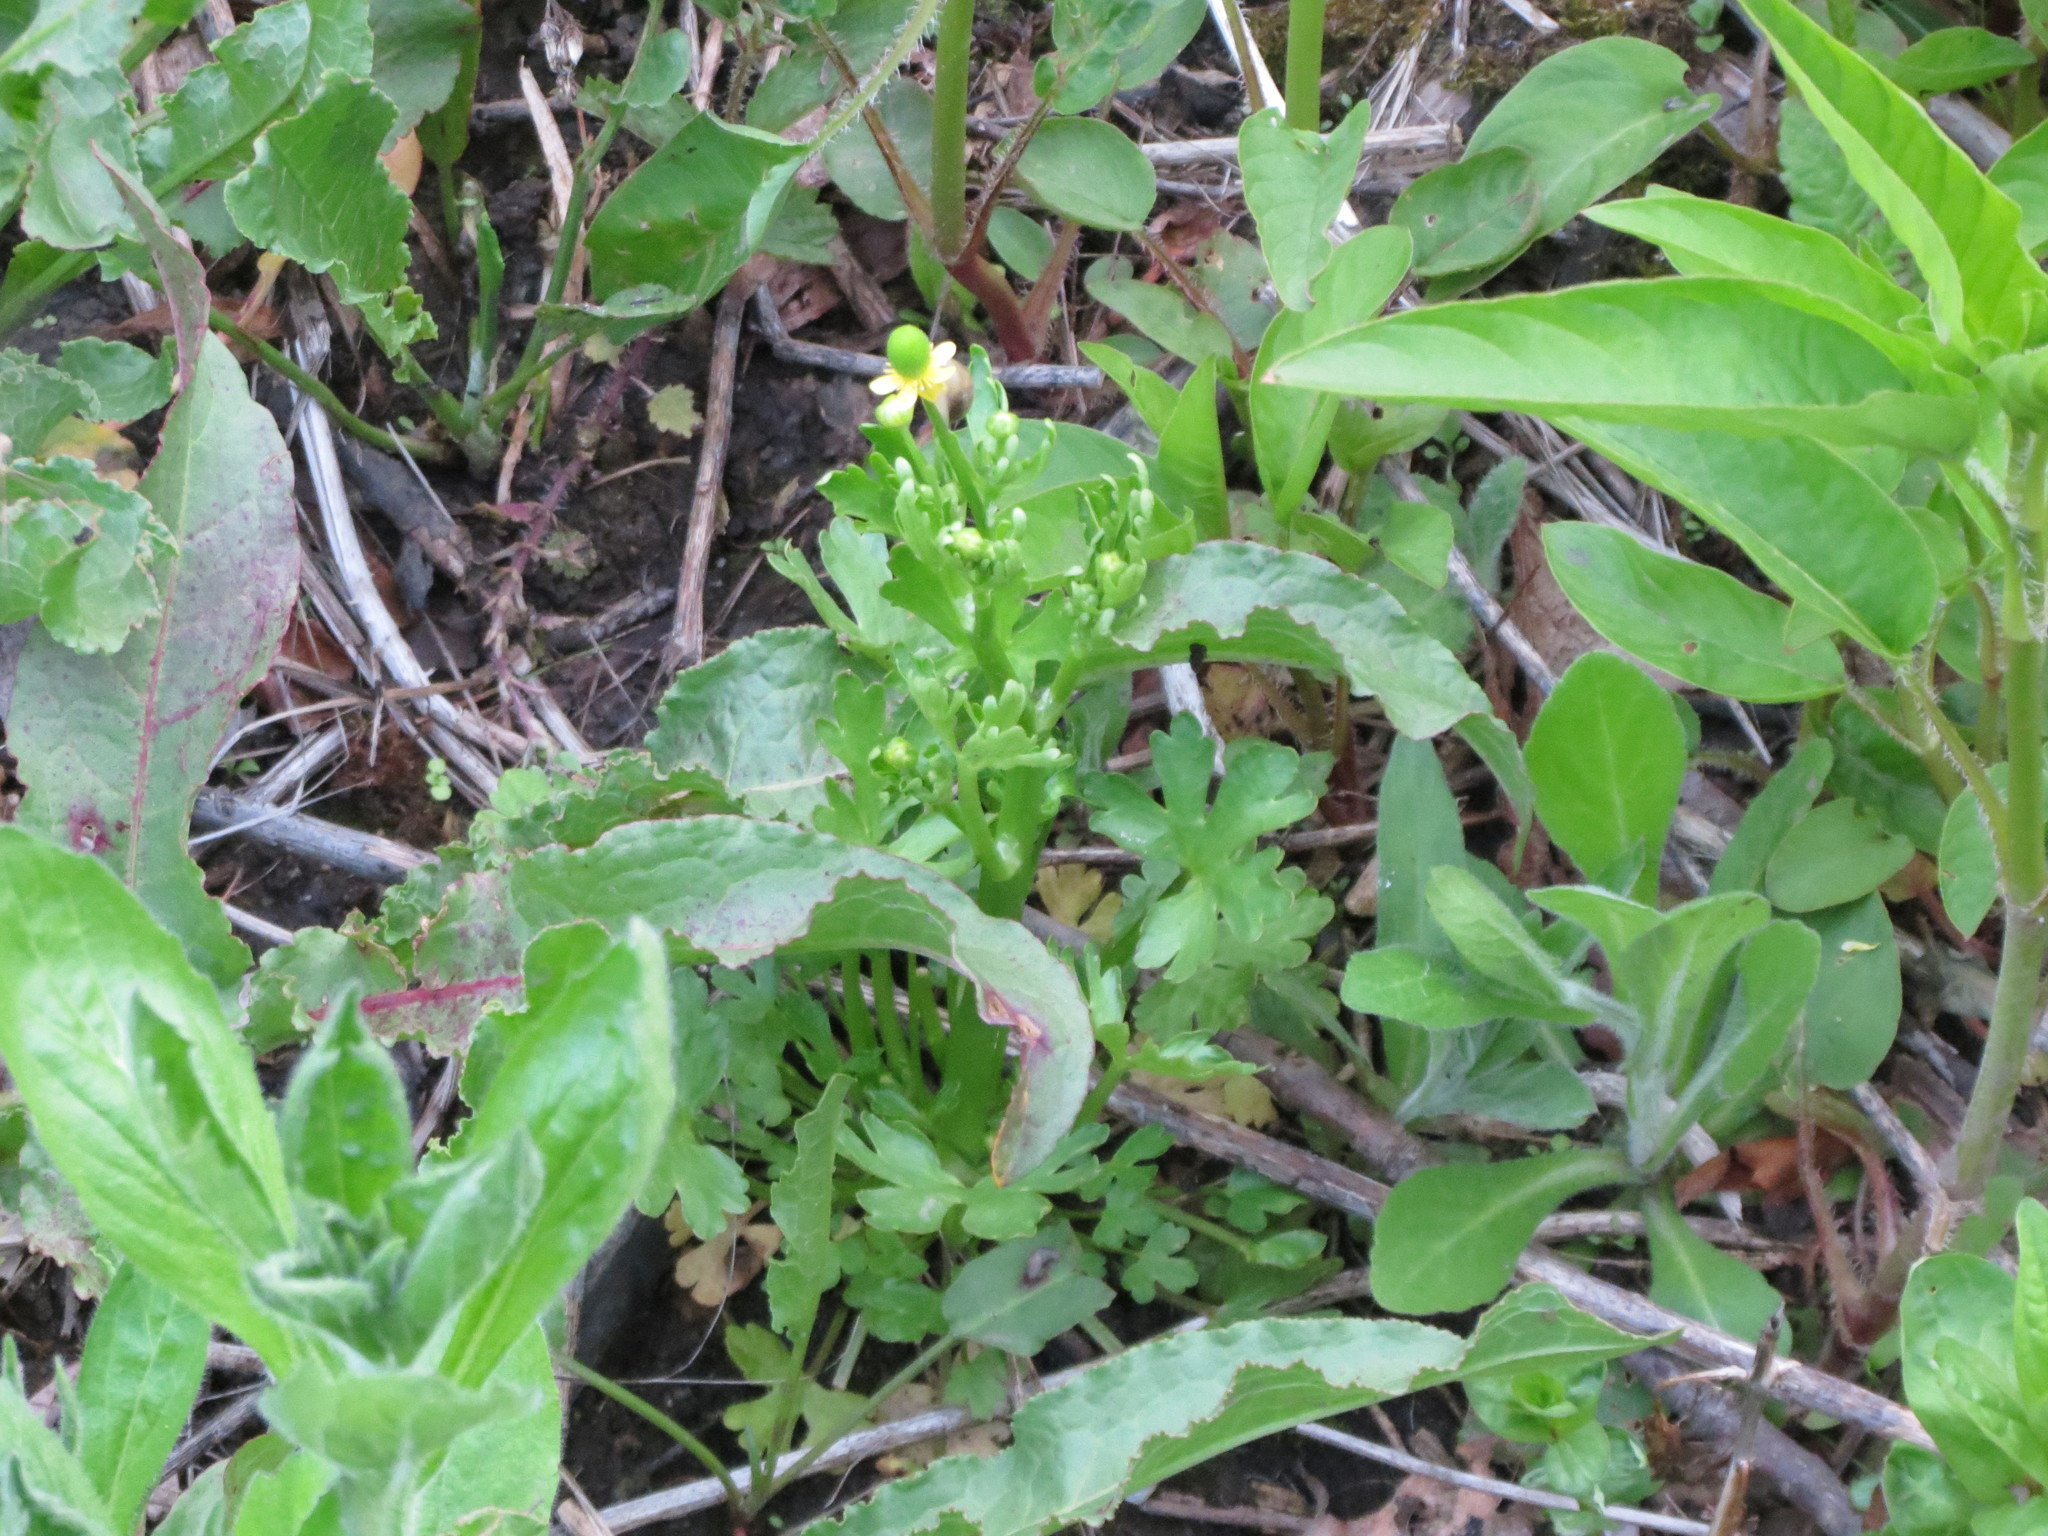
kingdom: Plantae
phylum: Tracheophyta
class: Magnoliopsida
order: Ranunculales
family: Ranunculaceae
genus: Ranunculus
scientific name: Ranunculus sceleratus
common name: Celery-leaved buttercup
